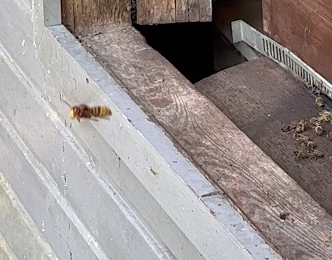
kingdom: Animalia
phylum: Arthropoda
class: Insecta
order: Hymenoptera
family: Vespidae
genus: Vespa
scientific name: Vespa crabro
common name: Hornet
